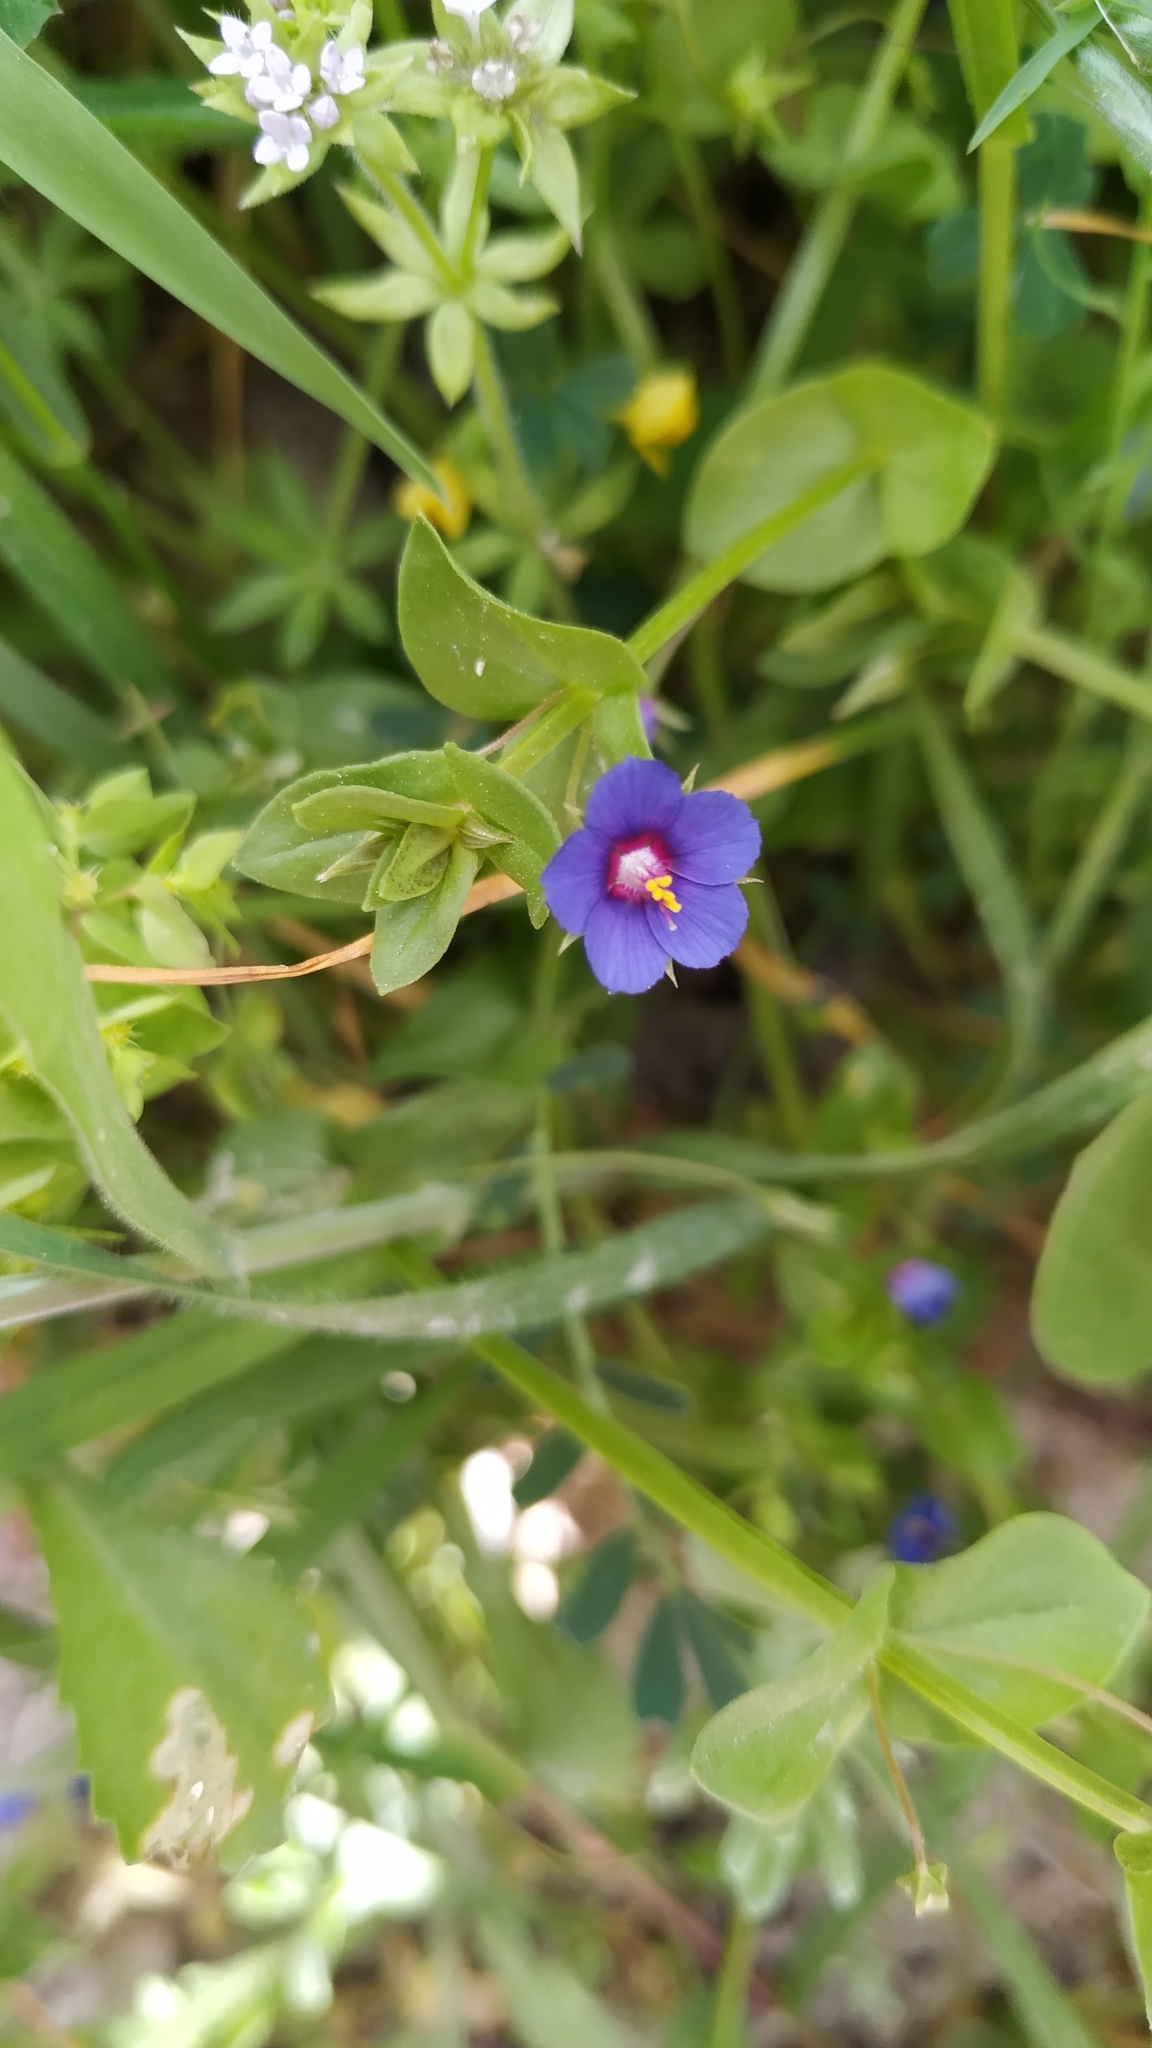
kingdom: Plantae
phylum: Tracheophyta
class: Magnoliopsida
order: Ericales
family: Primulaceae
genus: Lysimachia
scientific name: Lysimachia arvensis
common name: Scarlet pimpernel
